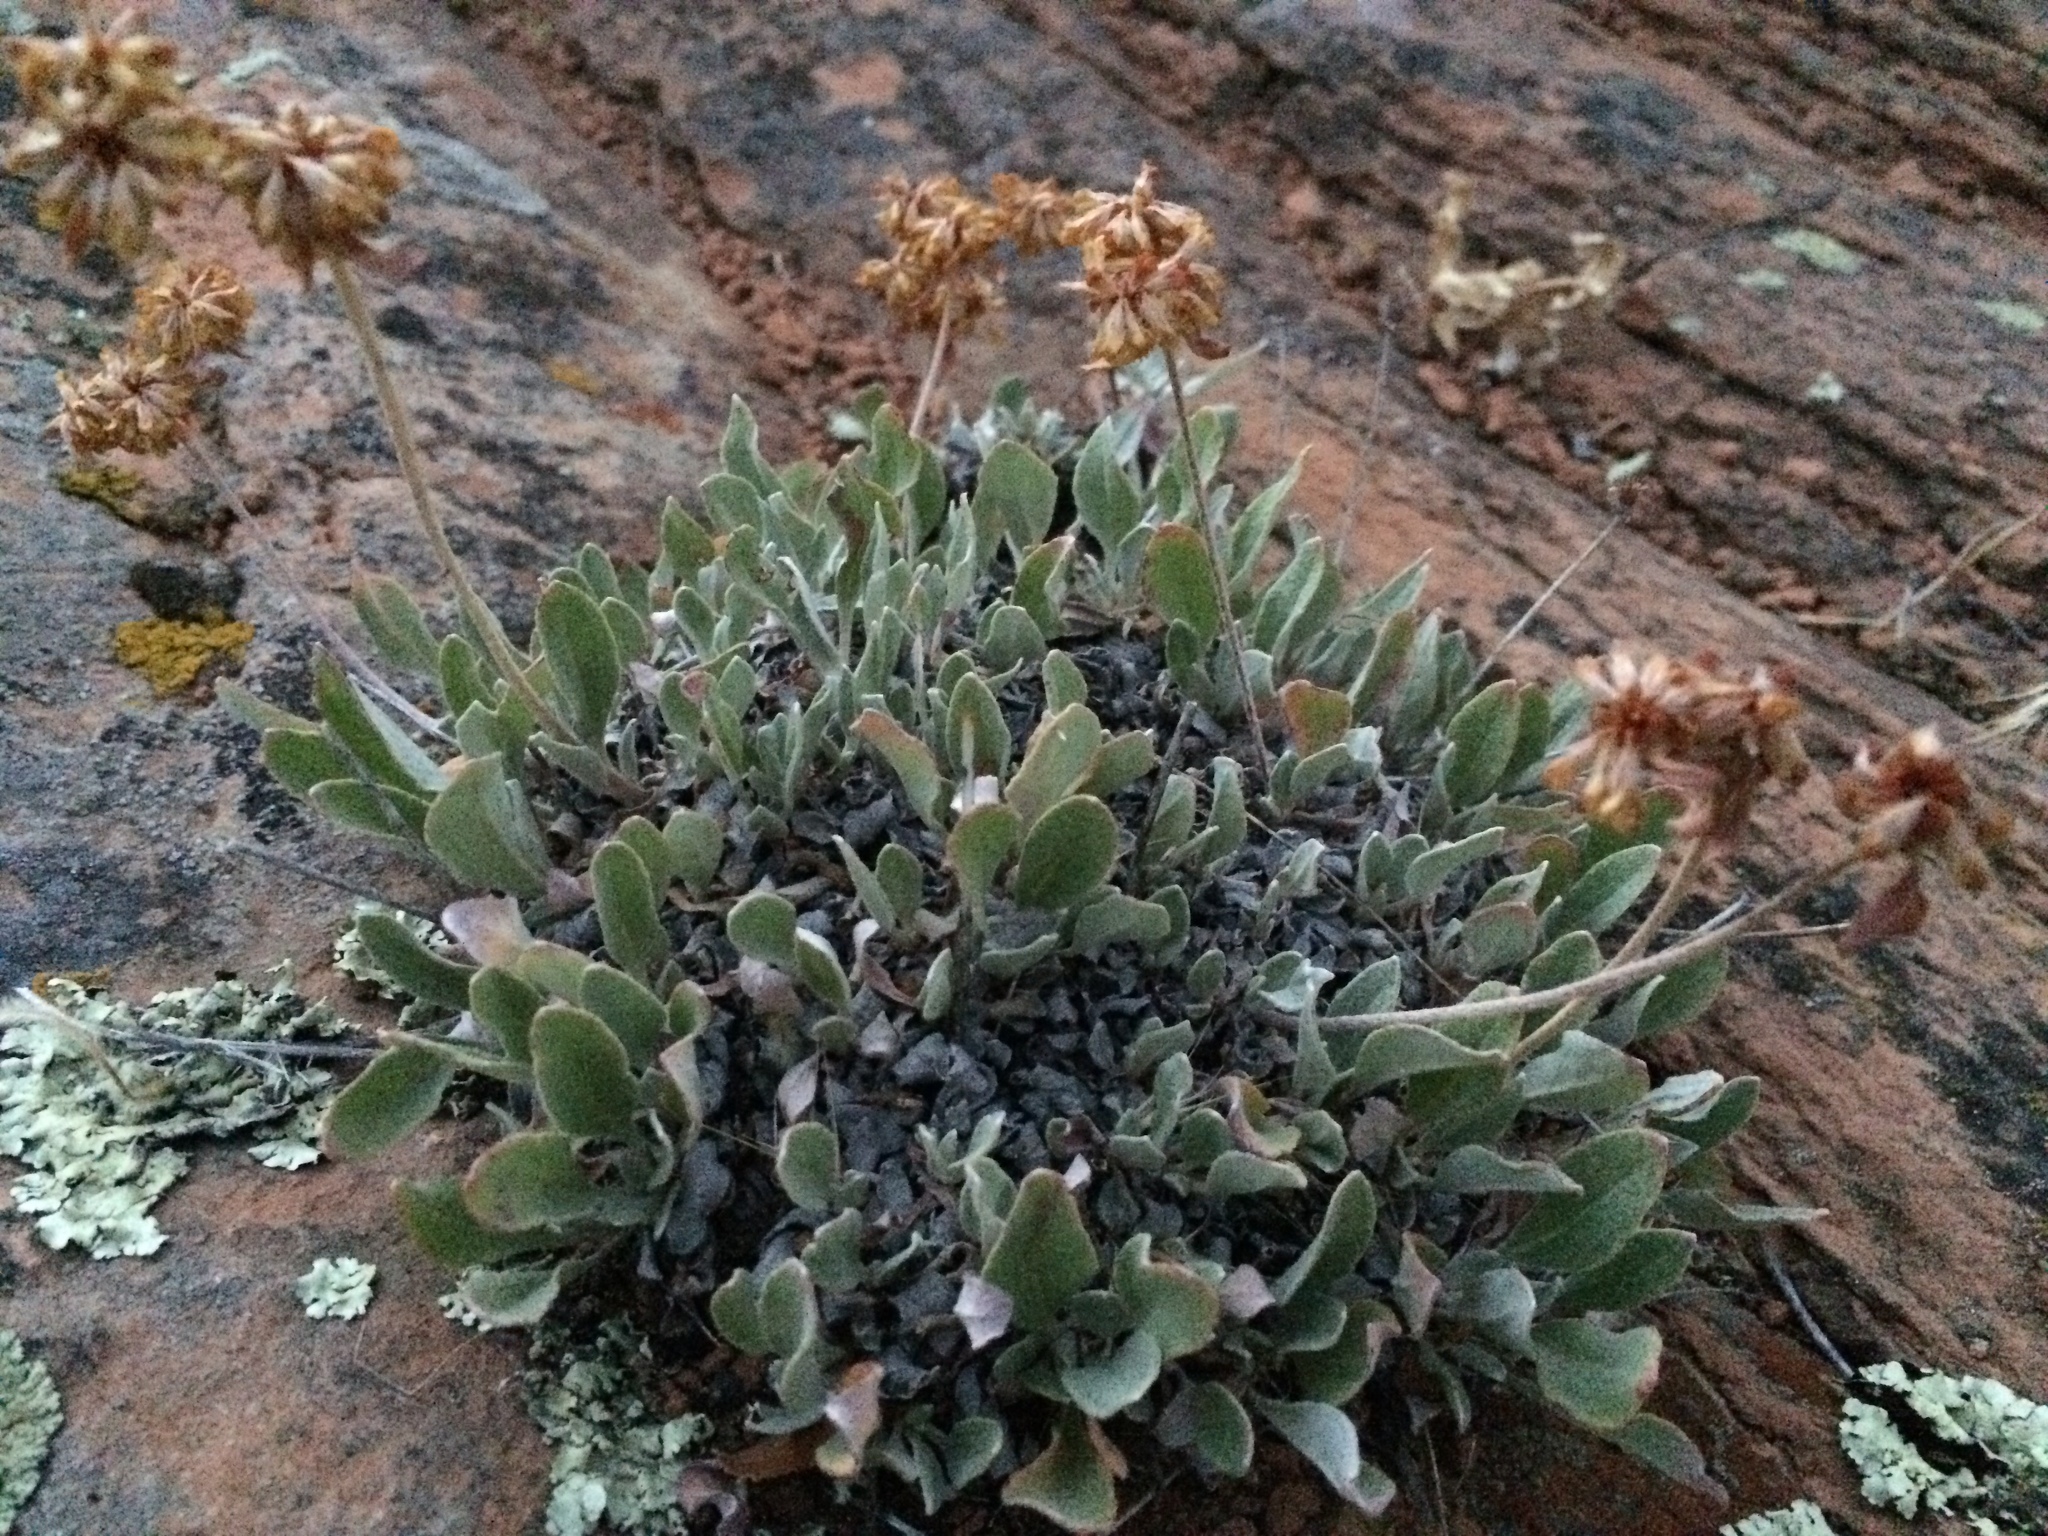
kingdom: Plantae
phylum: Tracheophyta
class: Magnoliopsida
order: Caryophyllales
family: Polygonaceae
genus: Eriogonum
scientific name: Eriogonum flavum
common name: Alpine golden wild buckwheat
